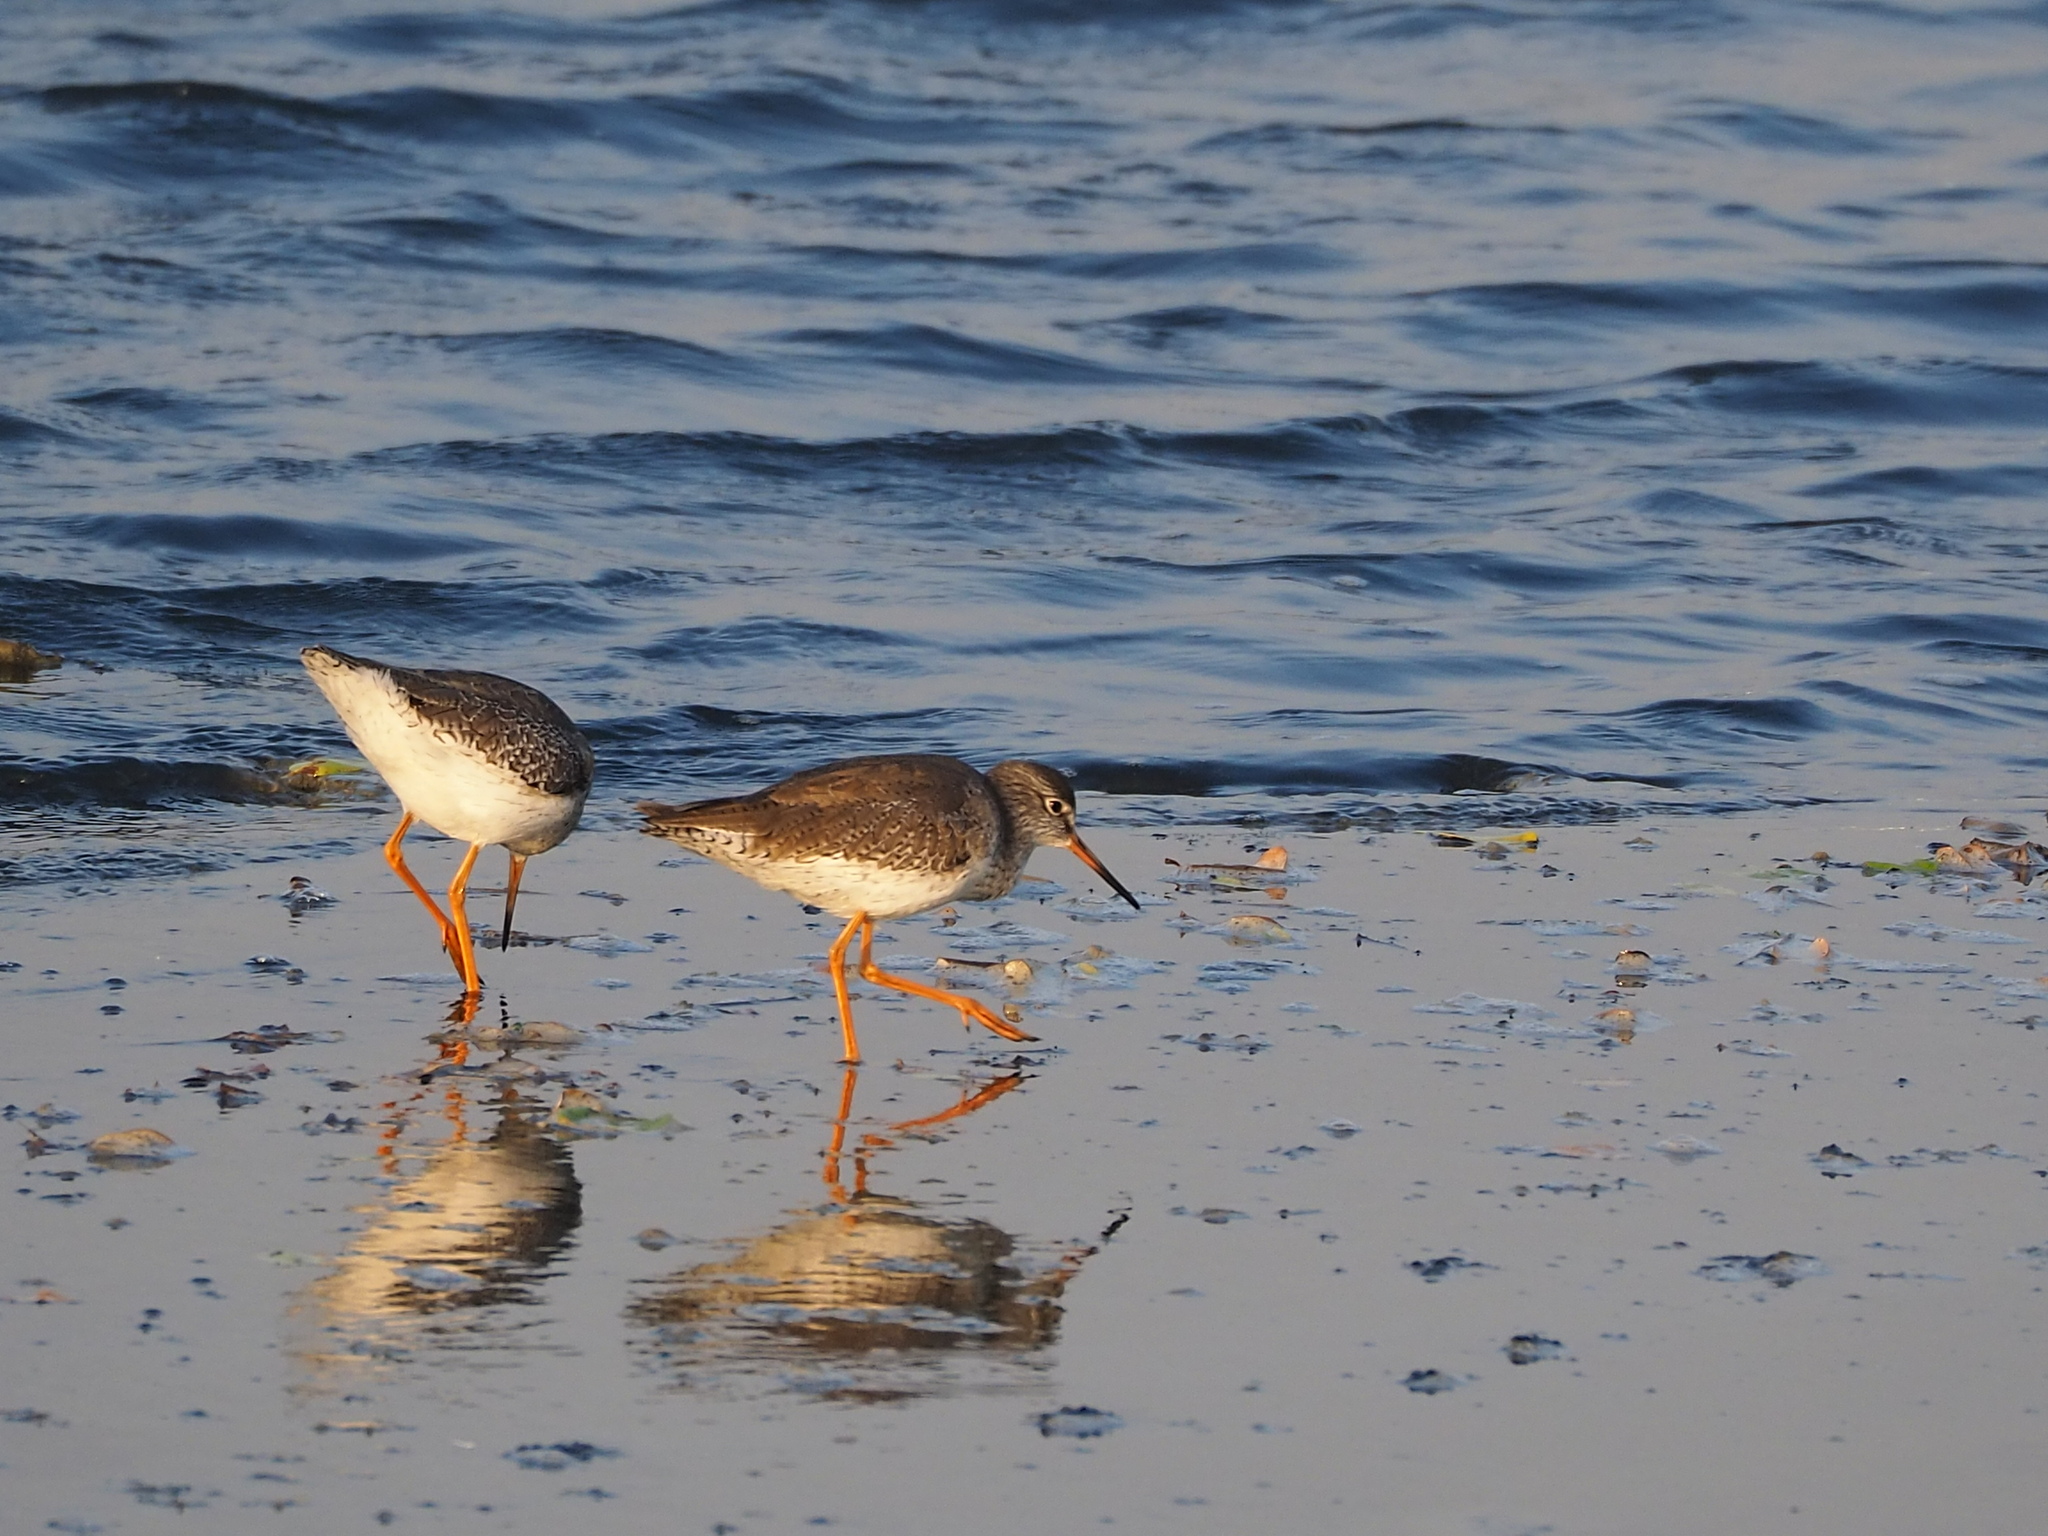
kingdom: Animalia
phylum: Chordata
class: Aves
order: Charadriiformes
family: Scolopacidae
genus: Tringa
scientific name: Tringa totanus
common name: Common redshank
